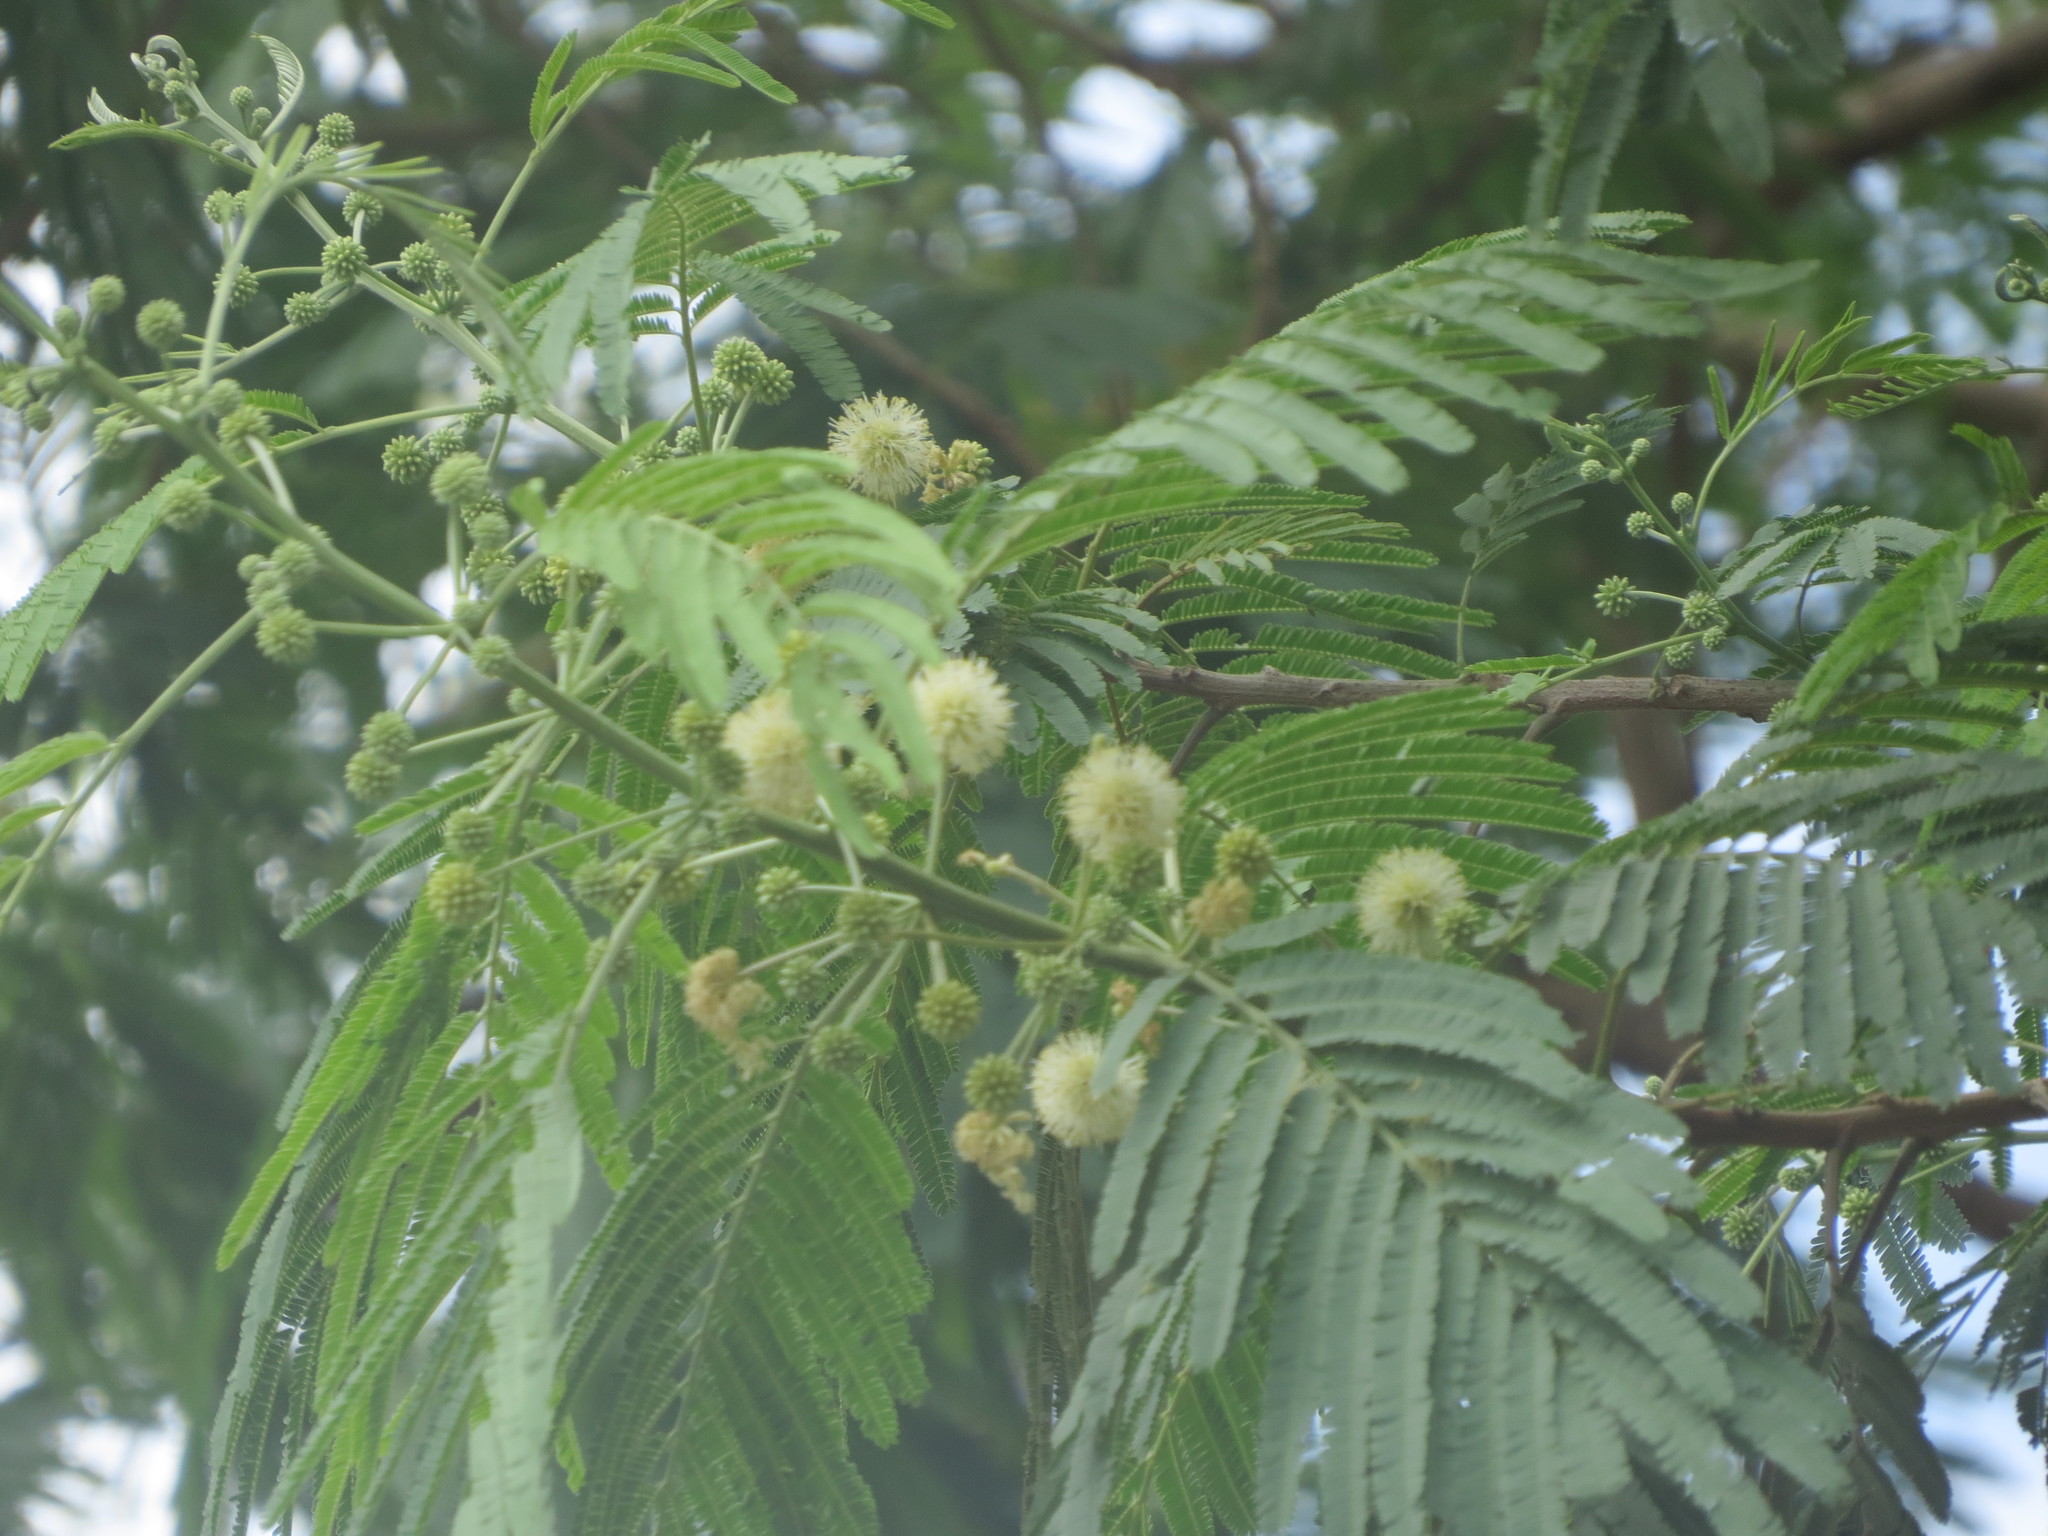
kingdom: Plantae
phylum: Tracheophyta
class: Magnoliopsida
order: Fabales
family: Fabaceae
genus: Leucaena
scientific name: Leucaena pulverulenta
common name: Great leadtree
